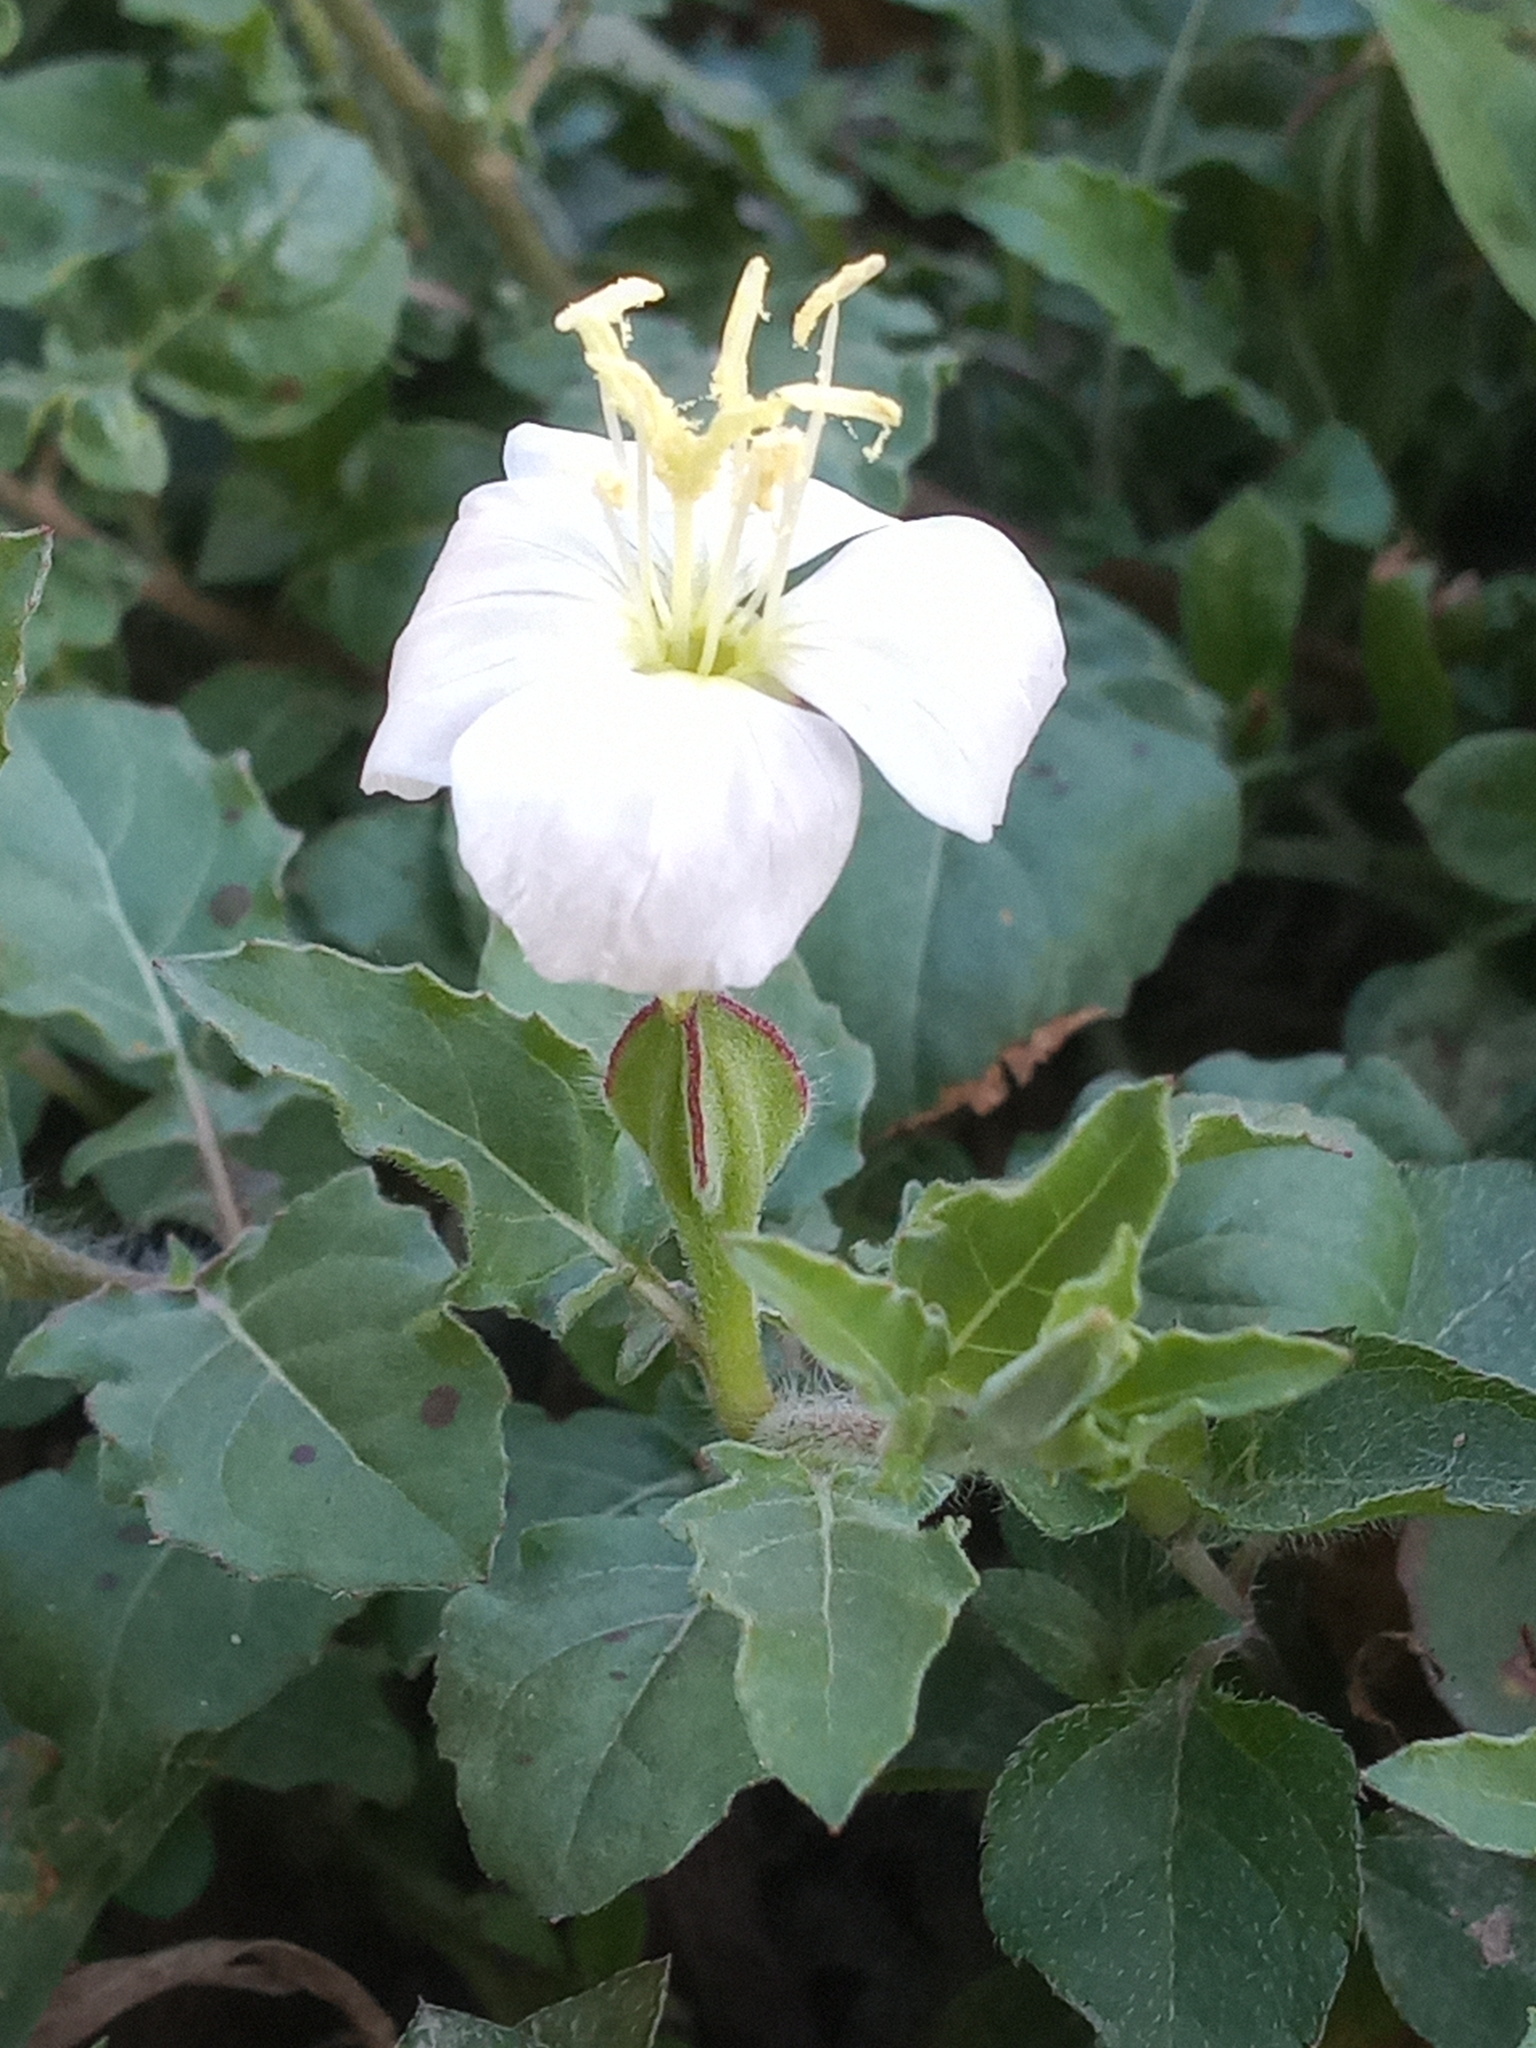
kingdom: Plantae
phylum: Tracheophyta
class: Magnoliopsida
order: Ericales
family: Primulaceae
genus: Lysimachia
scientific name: Lysimachia arvensis
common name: Scarlet pimpernel
